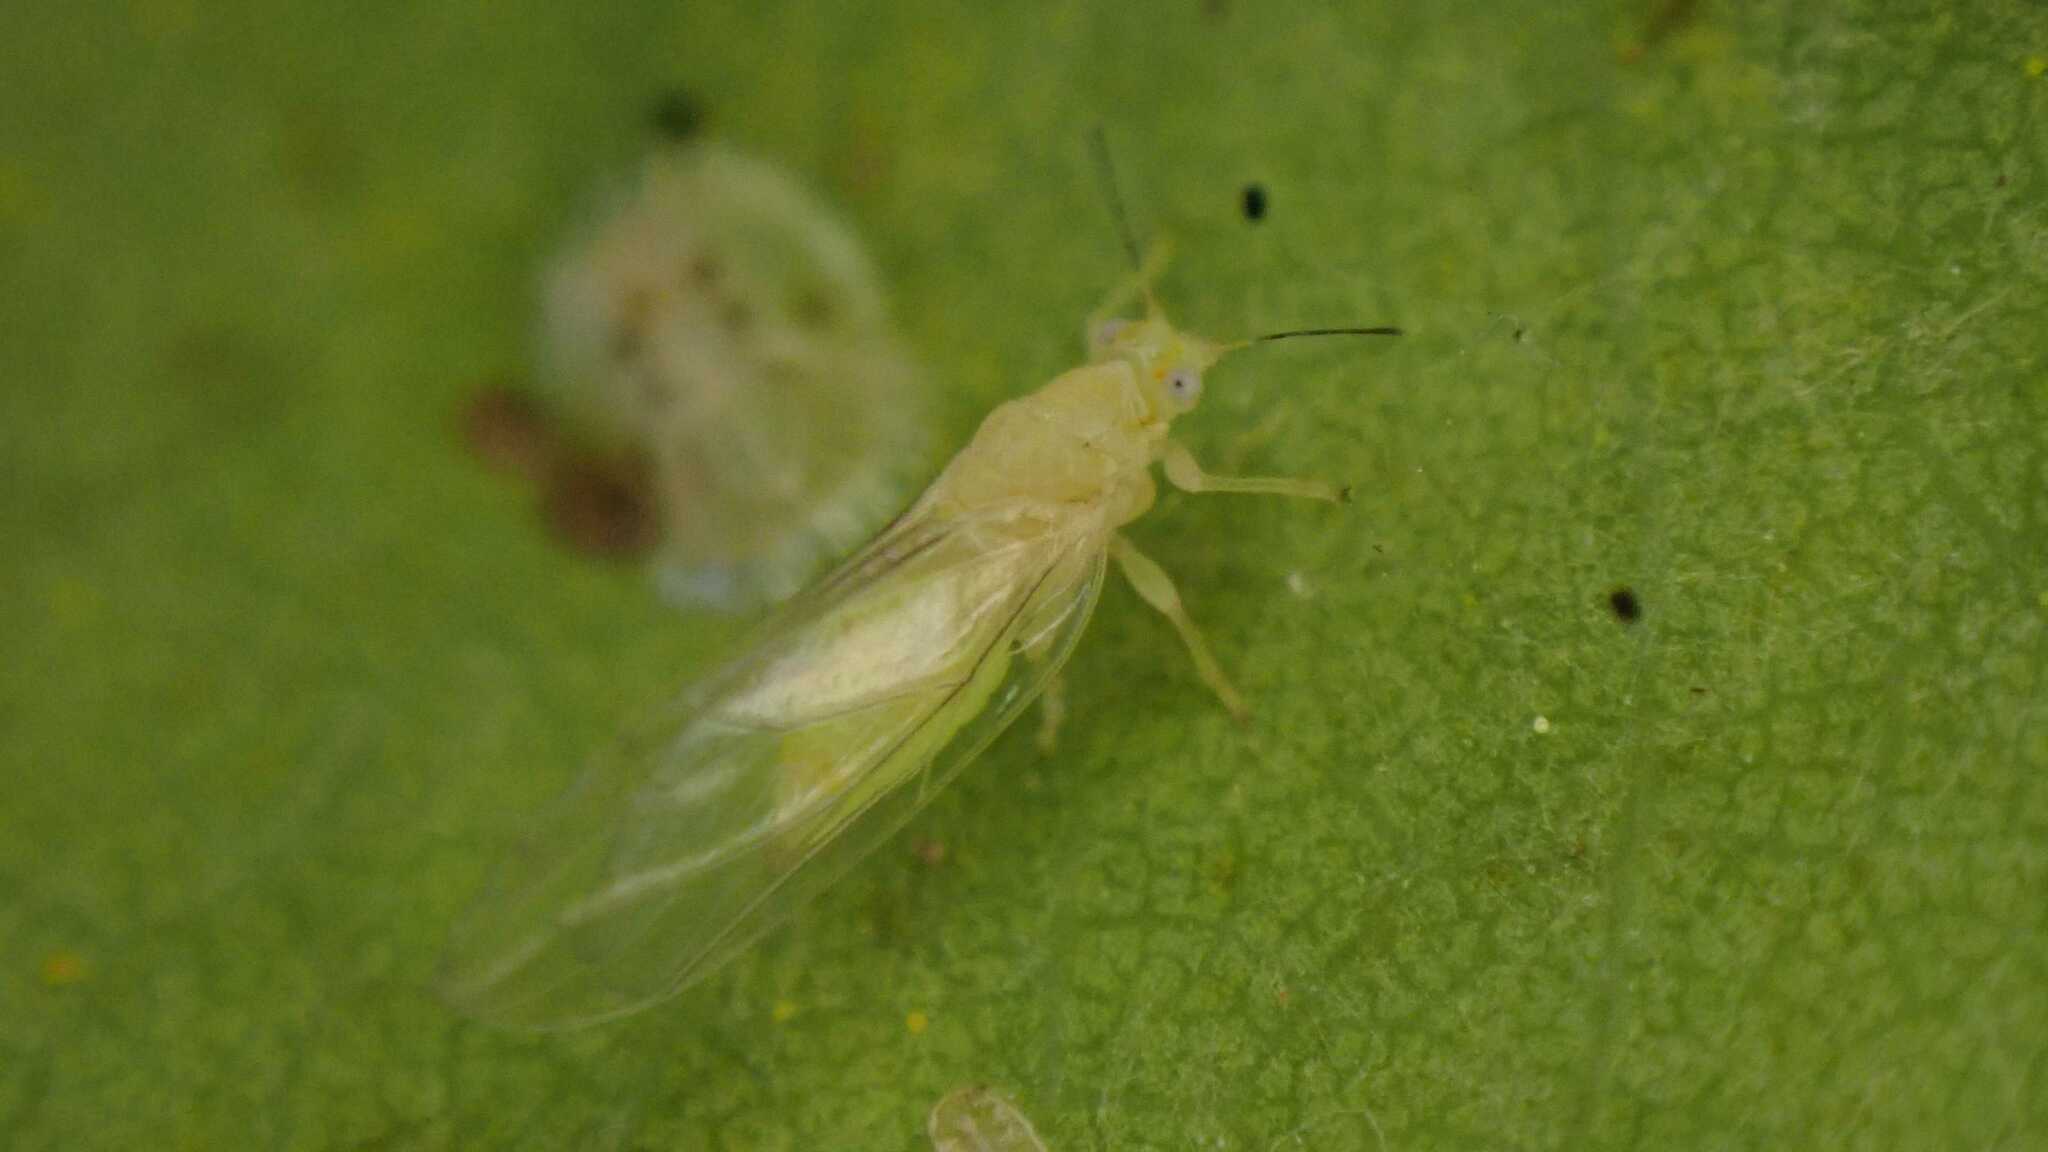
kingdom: Animalia
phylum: Arthropoda
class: Insecta
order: Hemiptera
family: Triozidae
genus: Trioza
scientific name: Trioza remota
